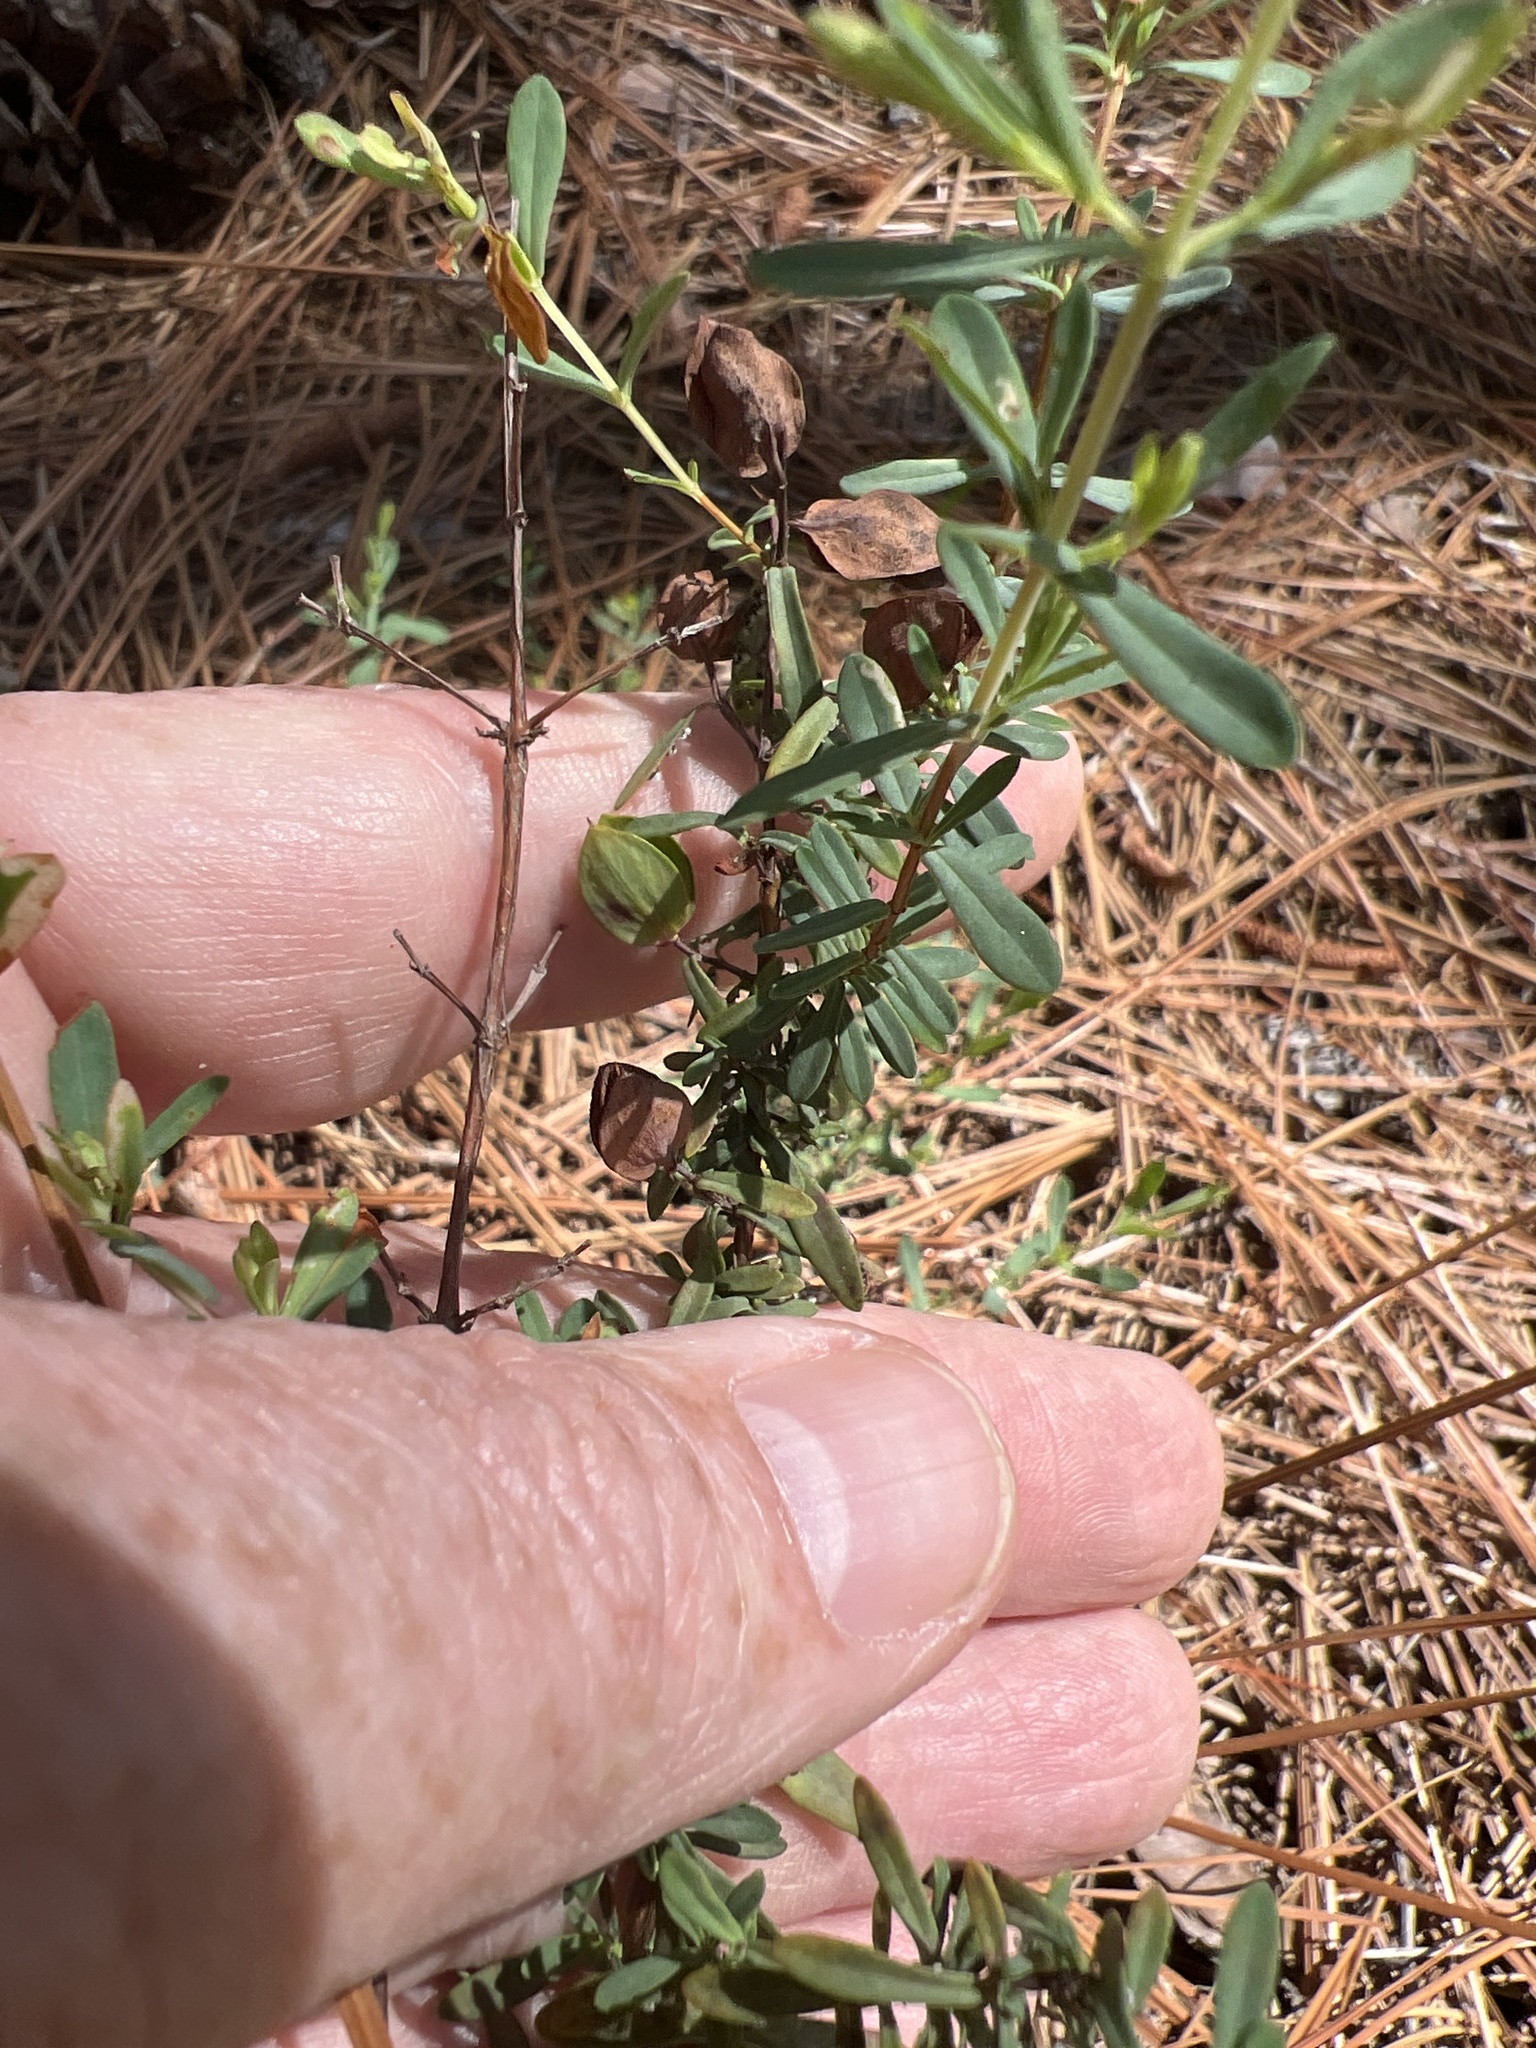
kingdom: Plantae
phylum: Tracheophyta
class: Magnoliopsida
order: Malpighiales
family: Hypericaceae
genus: Hypericum
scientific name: Hypericum hypericoides
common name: St. andrew's cross
